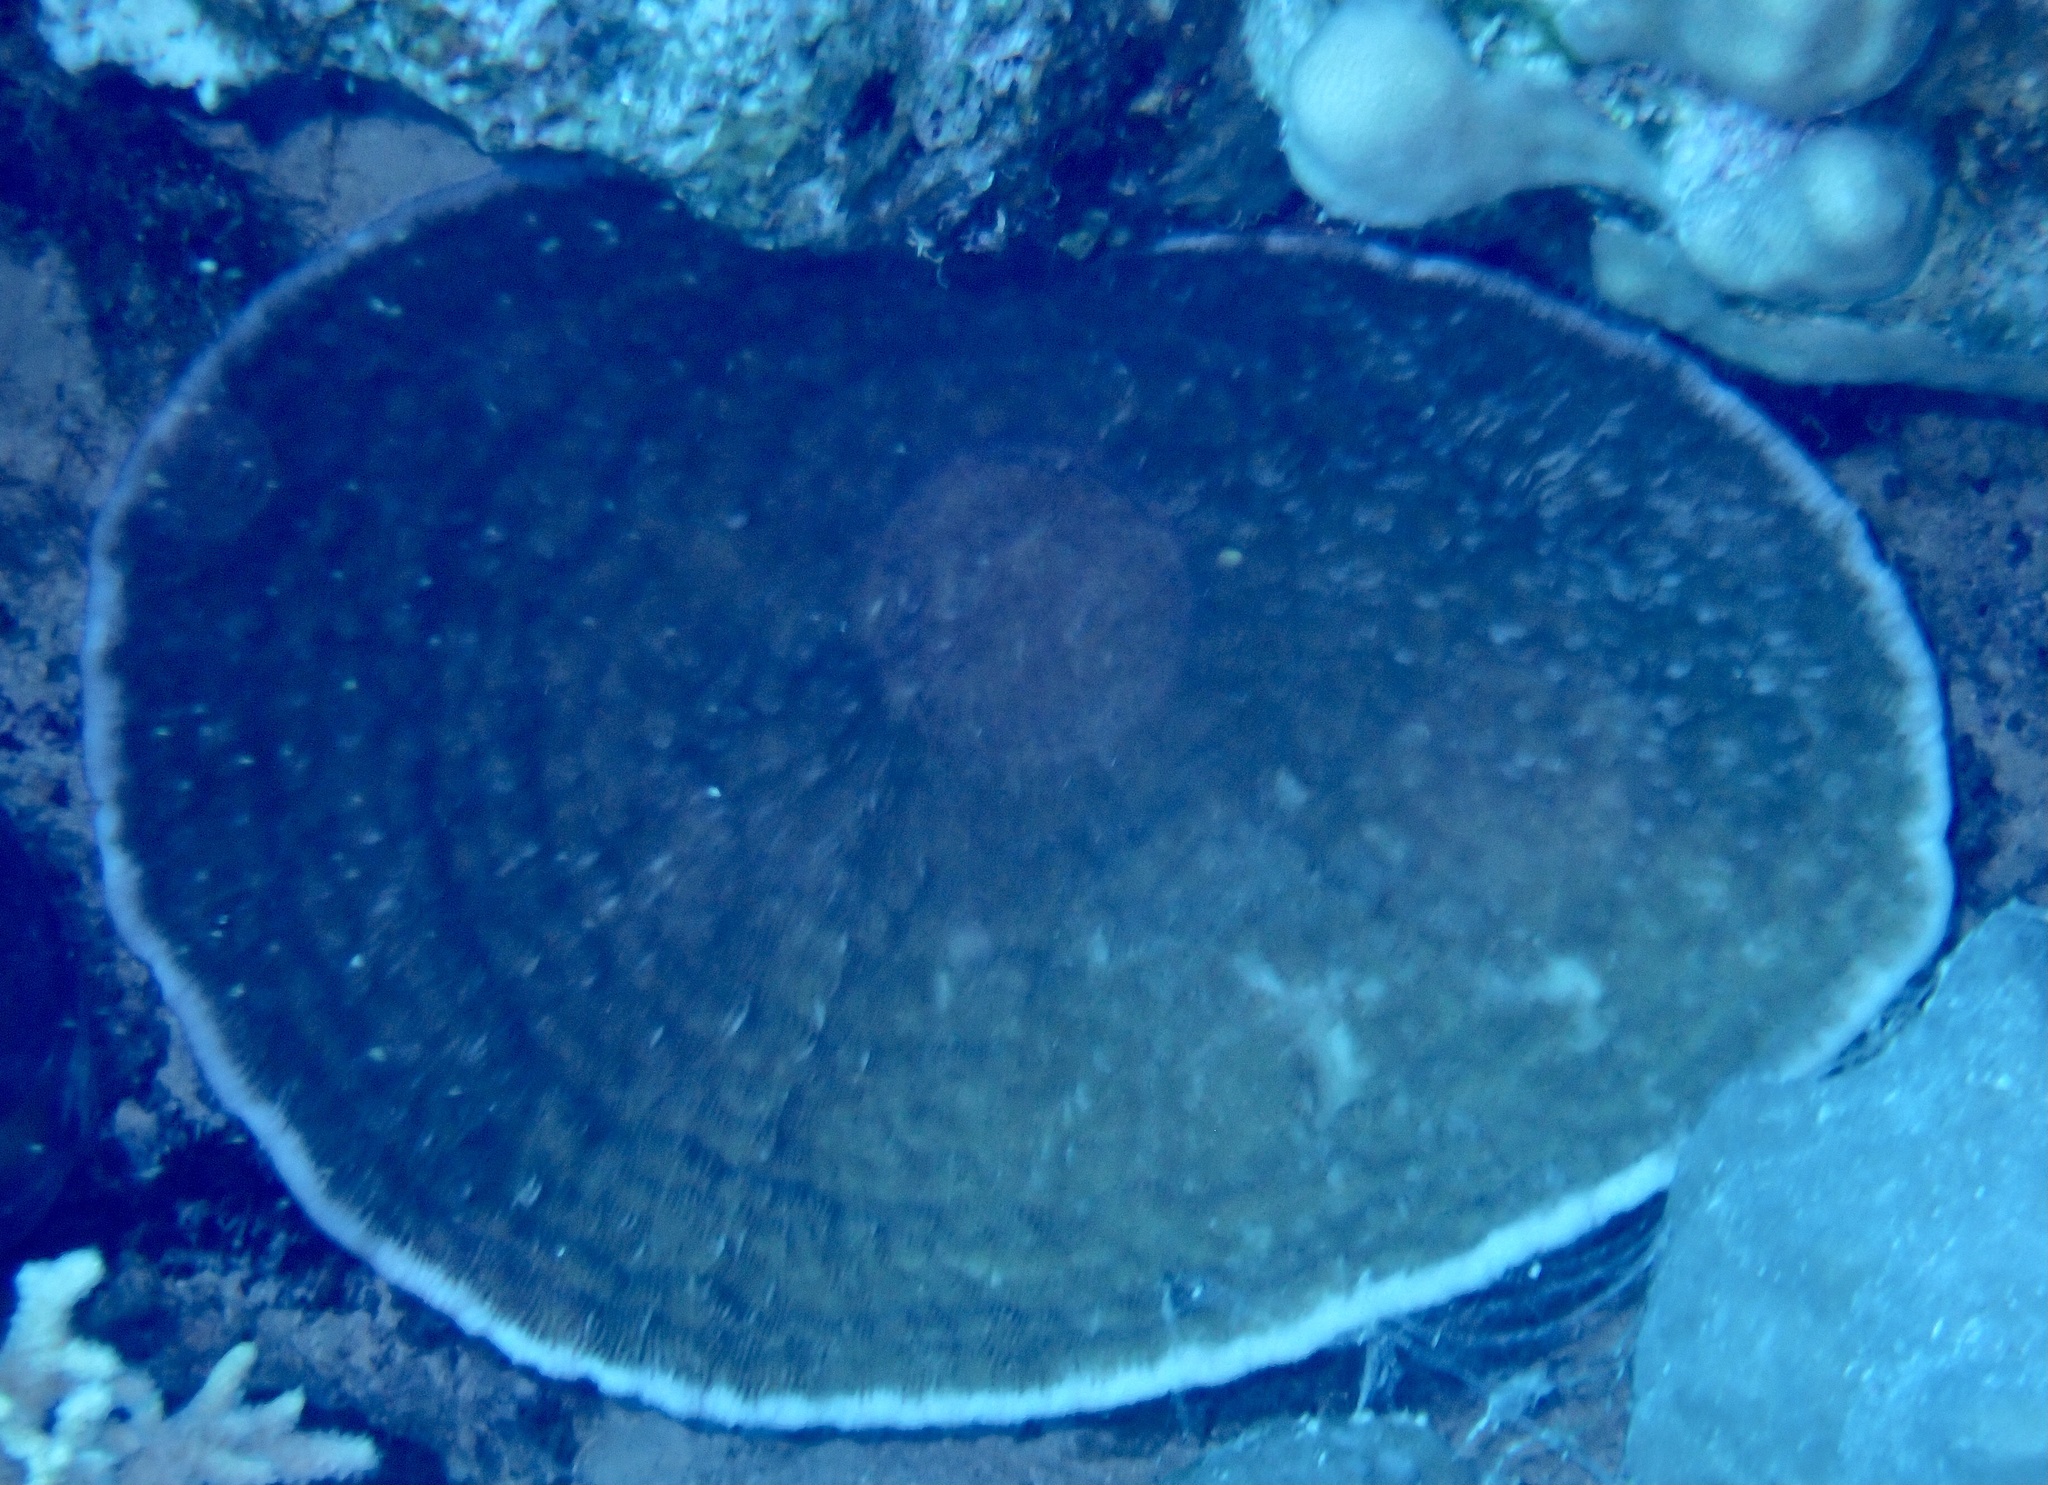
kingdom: Animalia
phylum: Cnidaria
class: Anthozoa
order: Scleractinia
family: Fungiidae
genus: Podabacia
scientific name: Podabacia sinai
